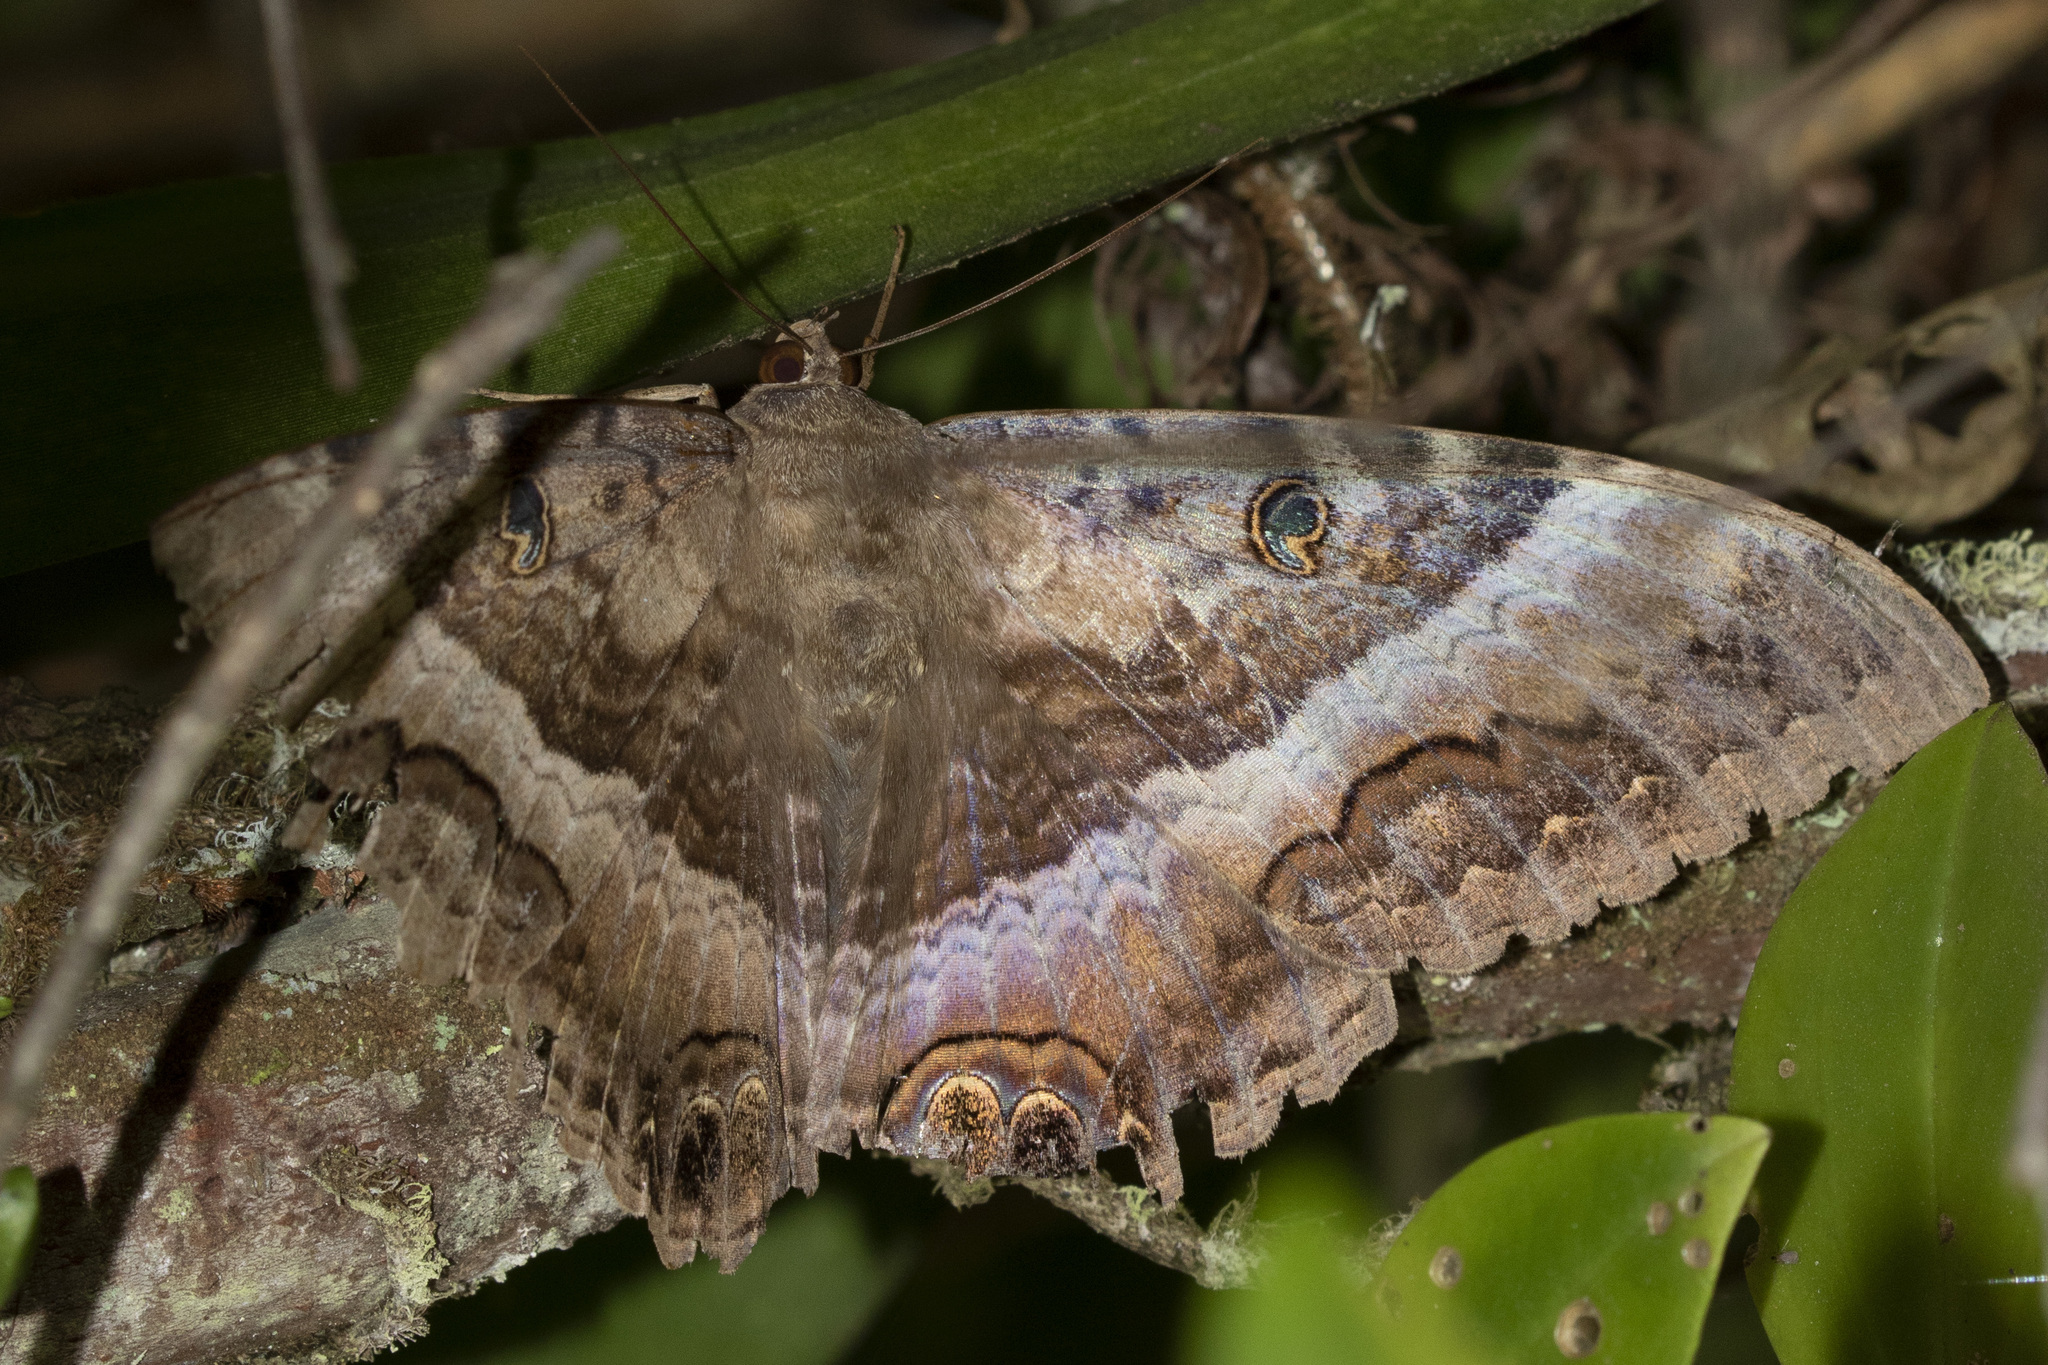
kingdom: Animalia
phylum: Arthropoda
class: Insecta
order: Lepidoptera
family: Erebidae
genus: Ascalapha
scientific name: Ascalapha odorata
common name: Black witch
